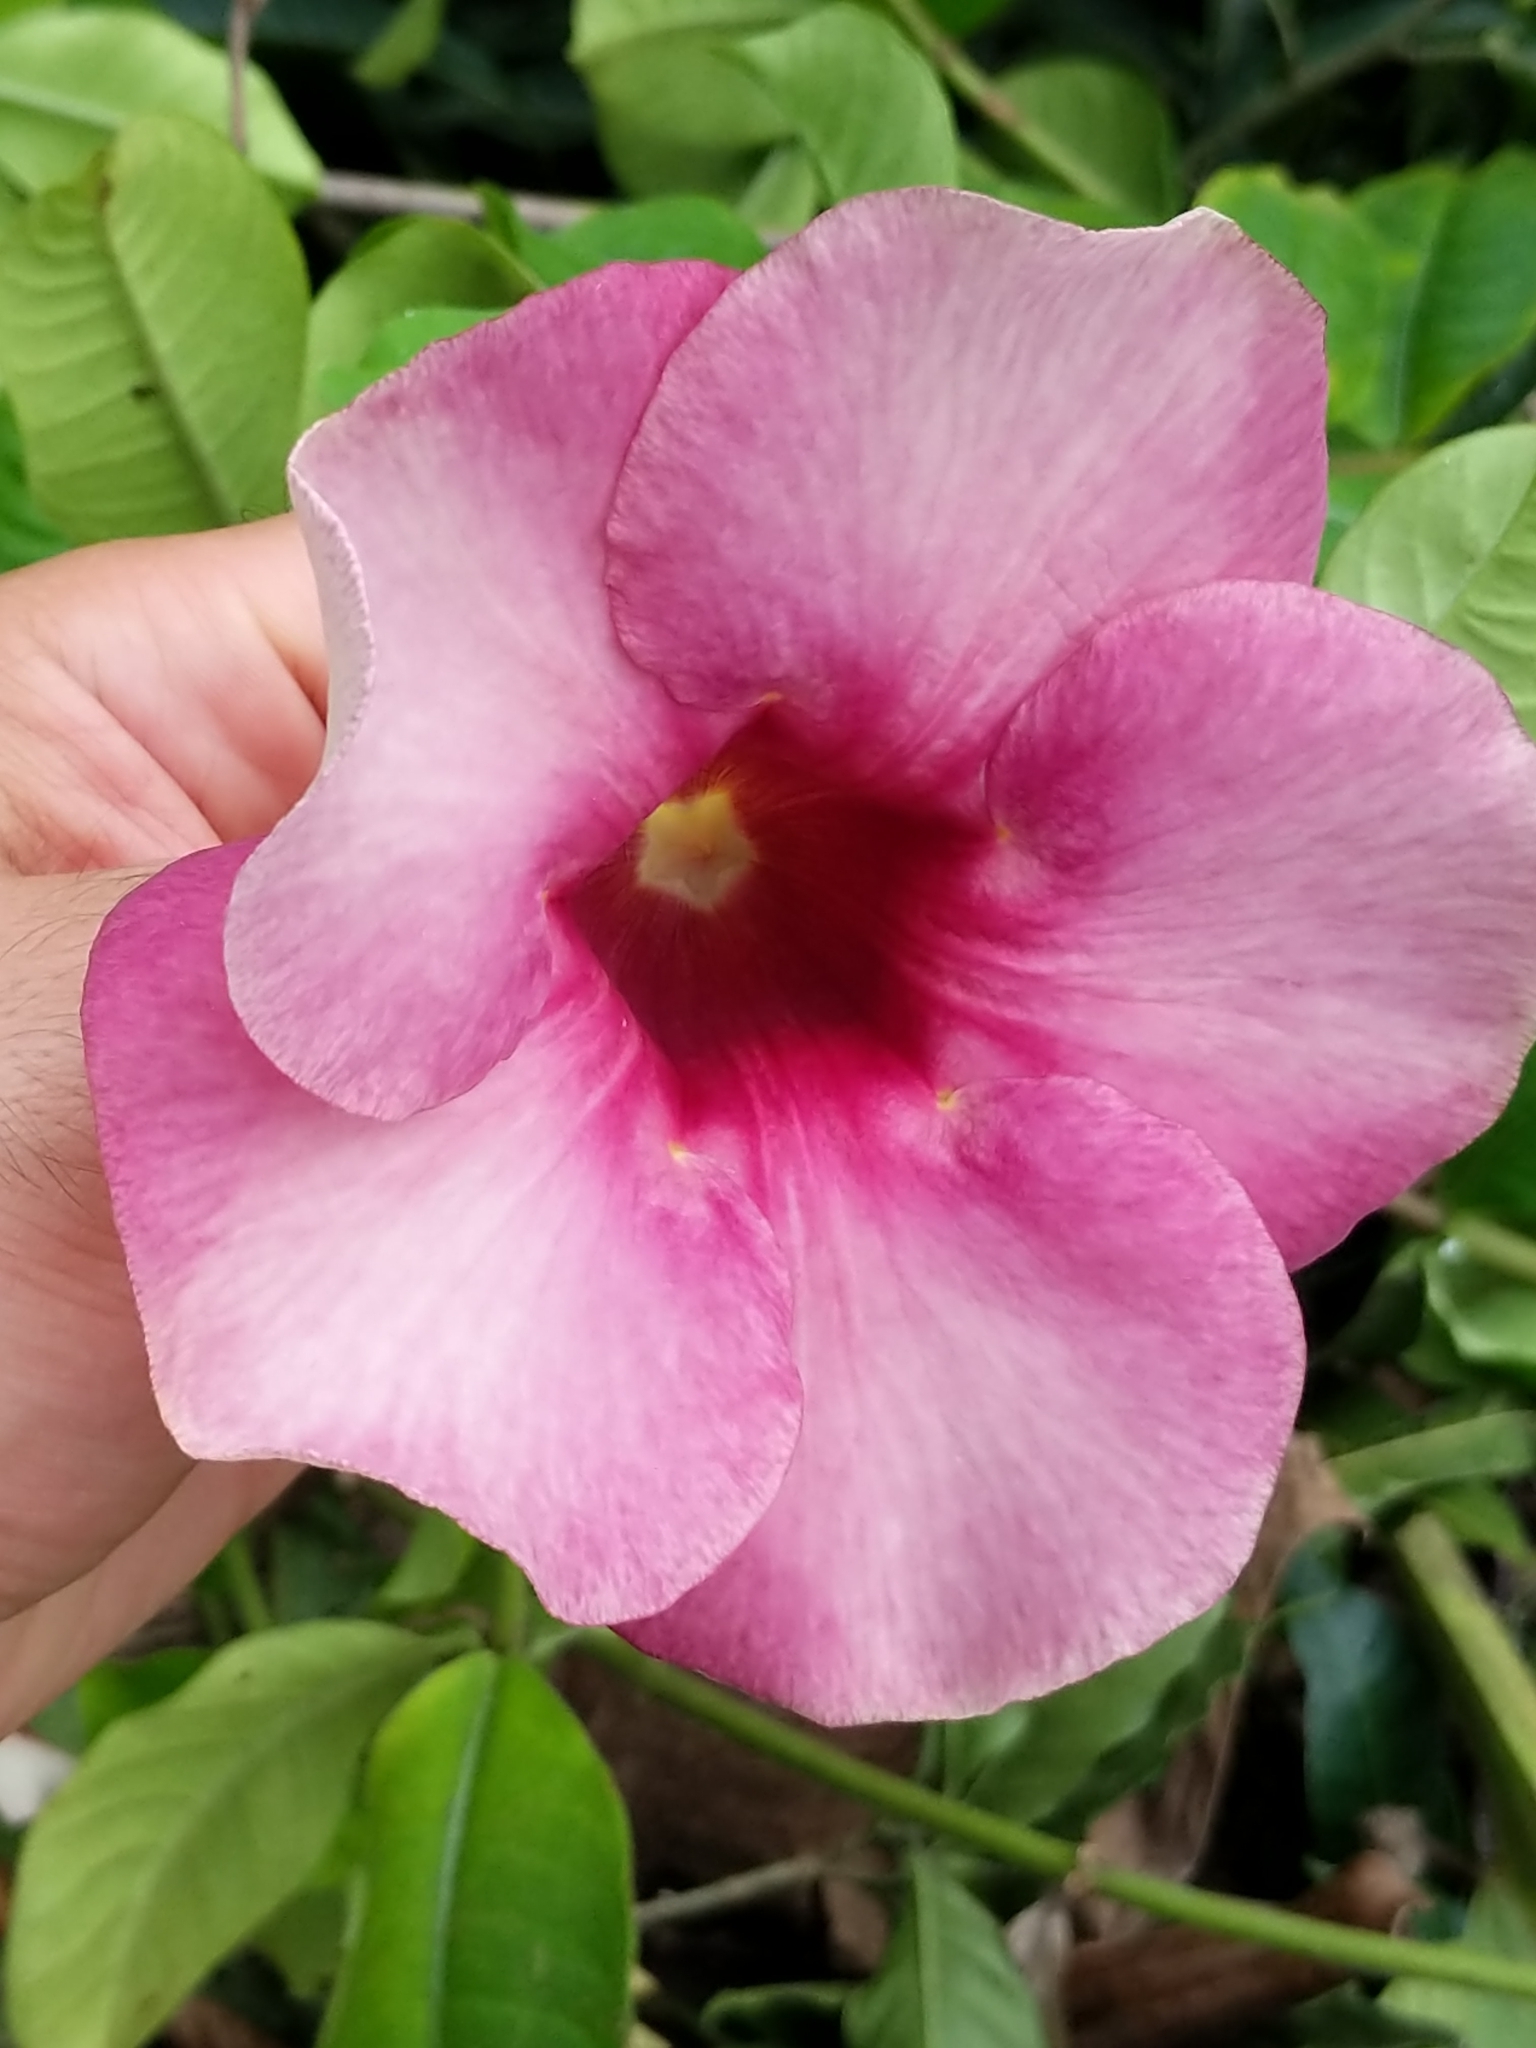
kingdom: Plantae
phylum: Tracheophyta
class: Magnoliopsida
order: Gentianales
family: Apocynaceae
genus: Allamanda
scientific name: Allamanda blanchetii
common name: Purple allamanda
